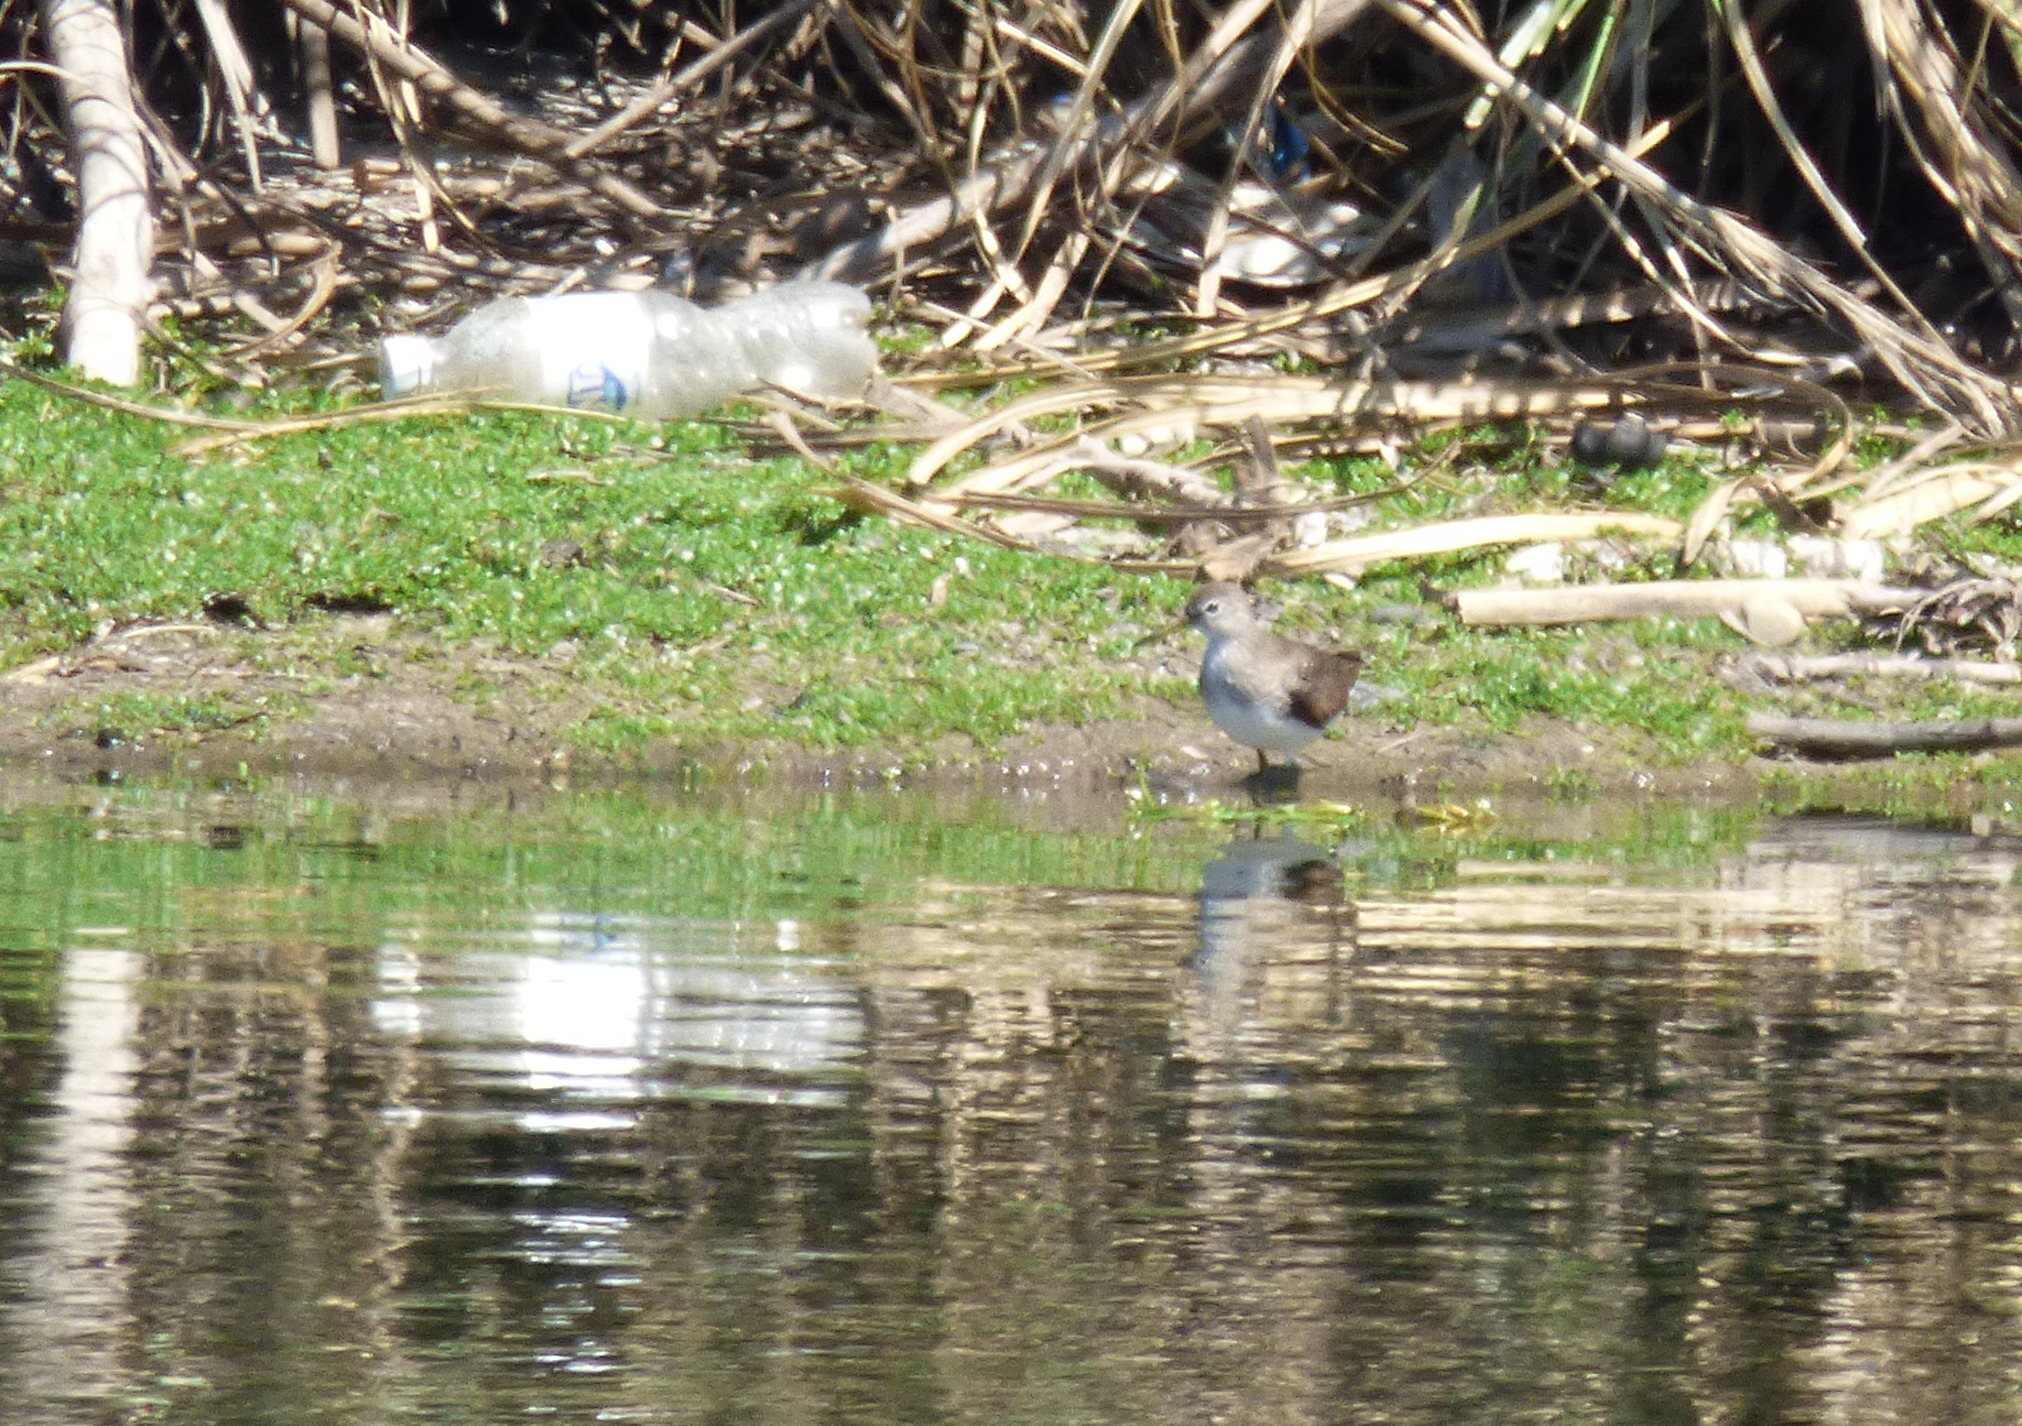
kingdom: Animalia
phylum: Chordata
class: Aves
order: Charadriiformes
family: Scolopacidae
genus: Tringa
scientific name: Tringa solitaria
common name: Solitary sandpiper
